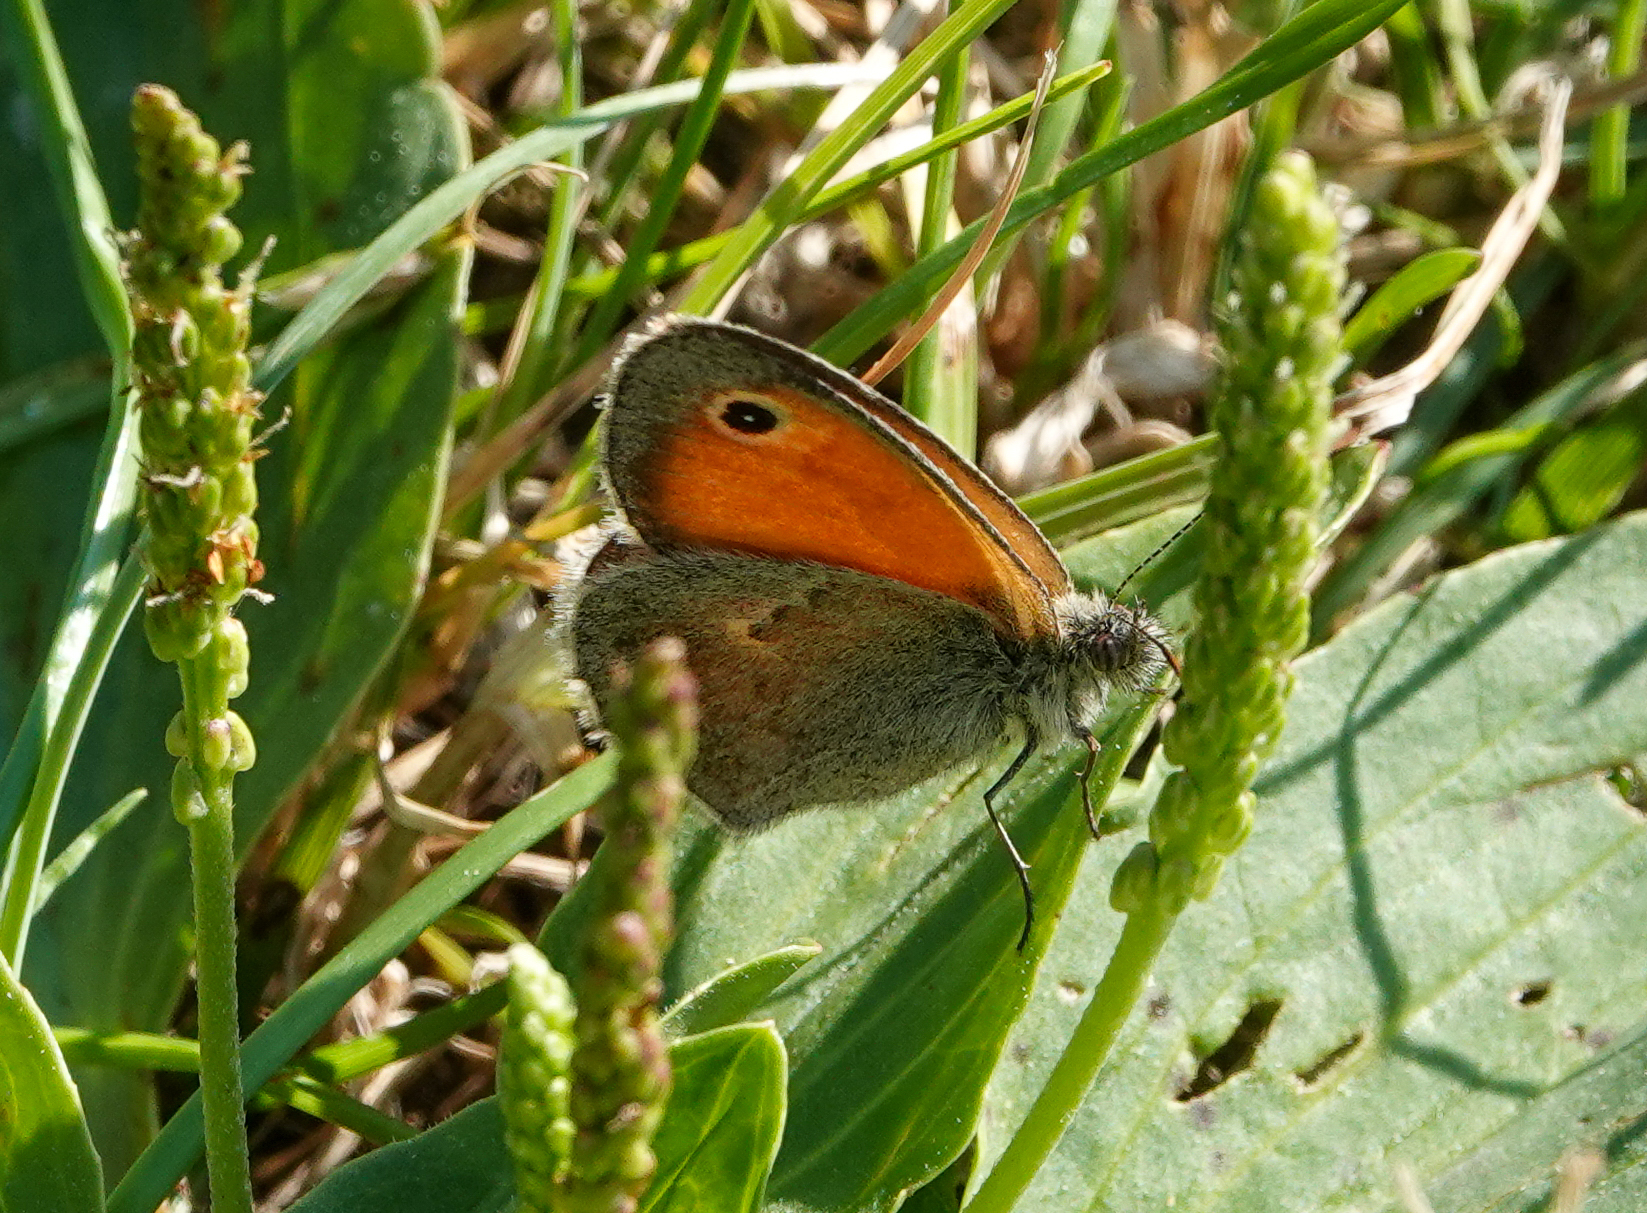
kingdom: Animalia
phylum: Arthropoda
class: Insecta
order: Lepidoptera
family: Nymphalidae
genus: Coenonympha
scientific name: Coenonympha pamphilus
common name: Small heath
